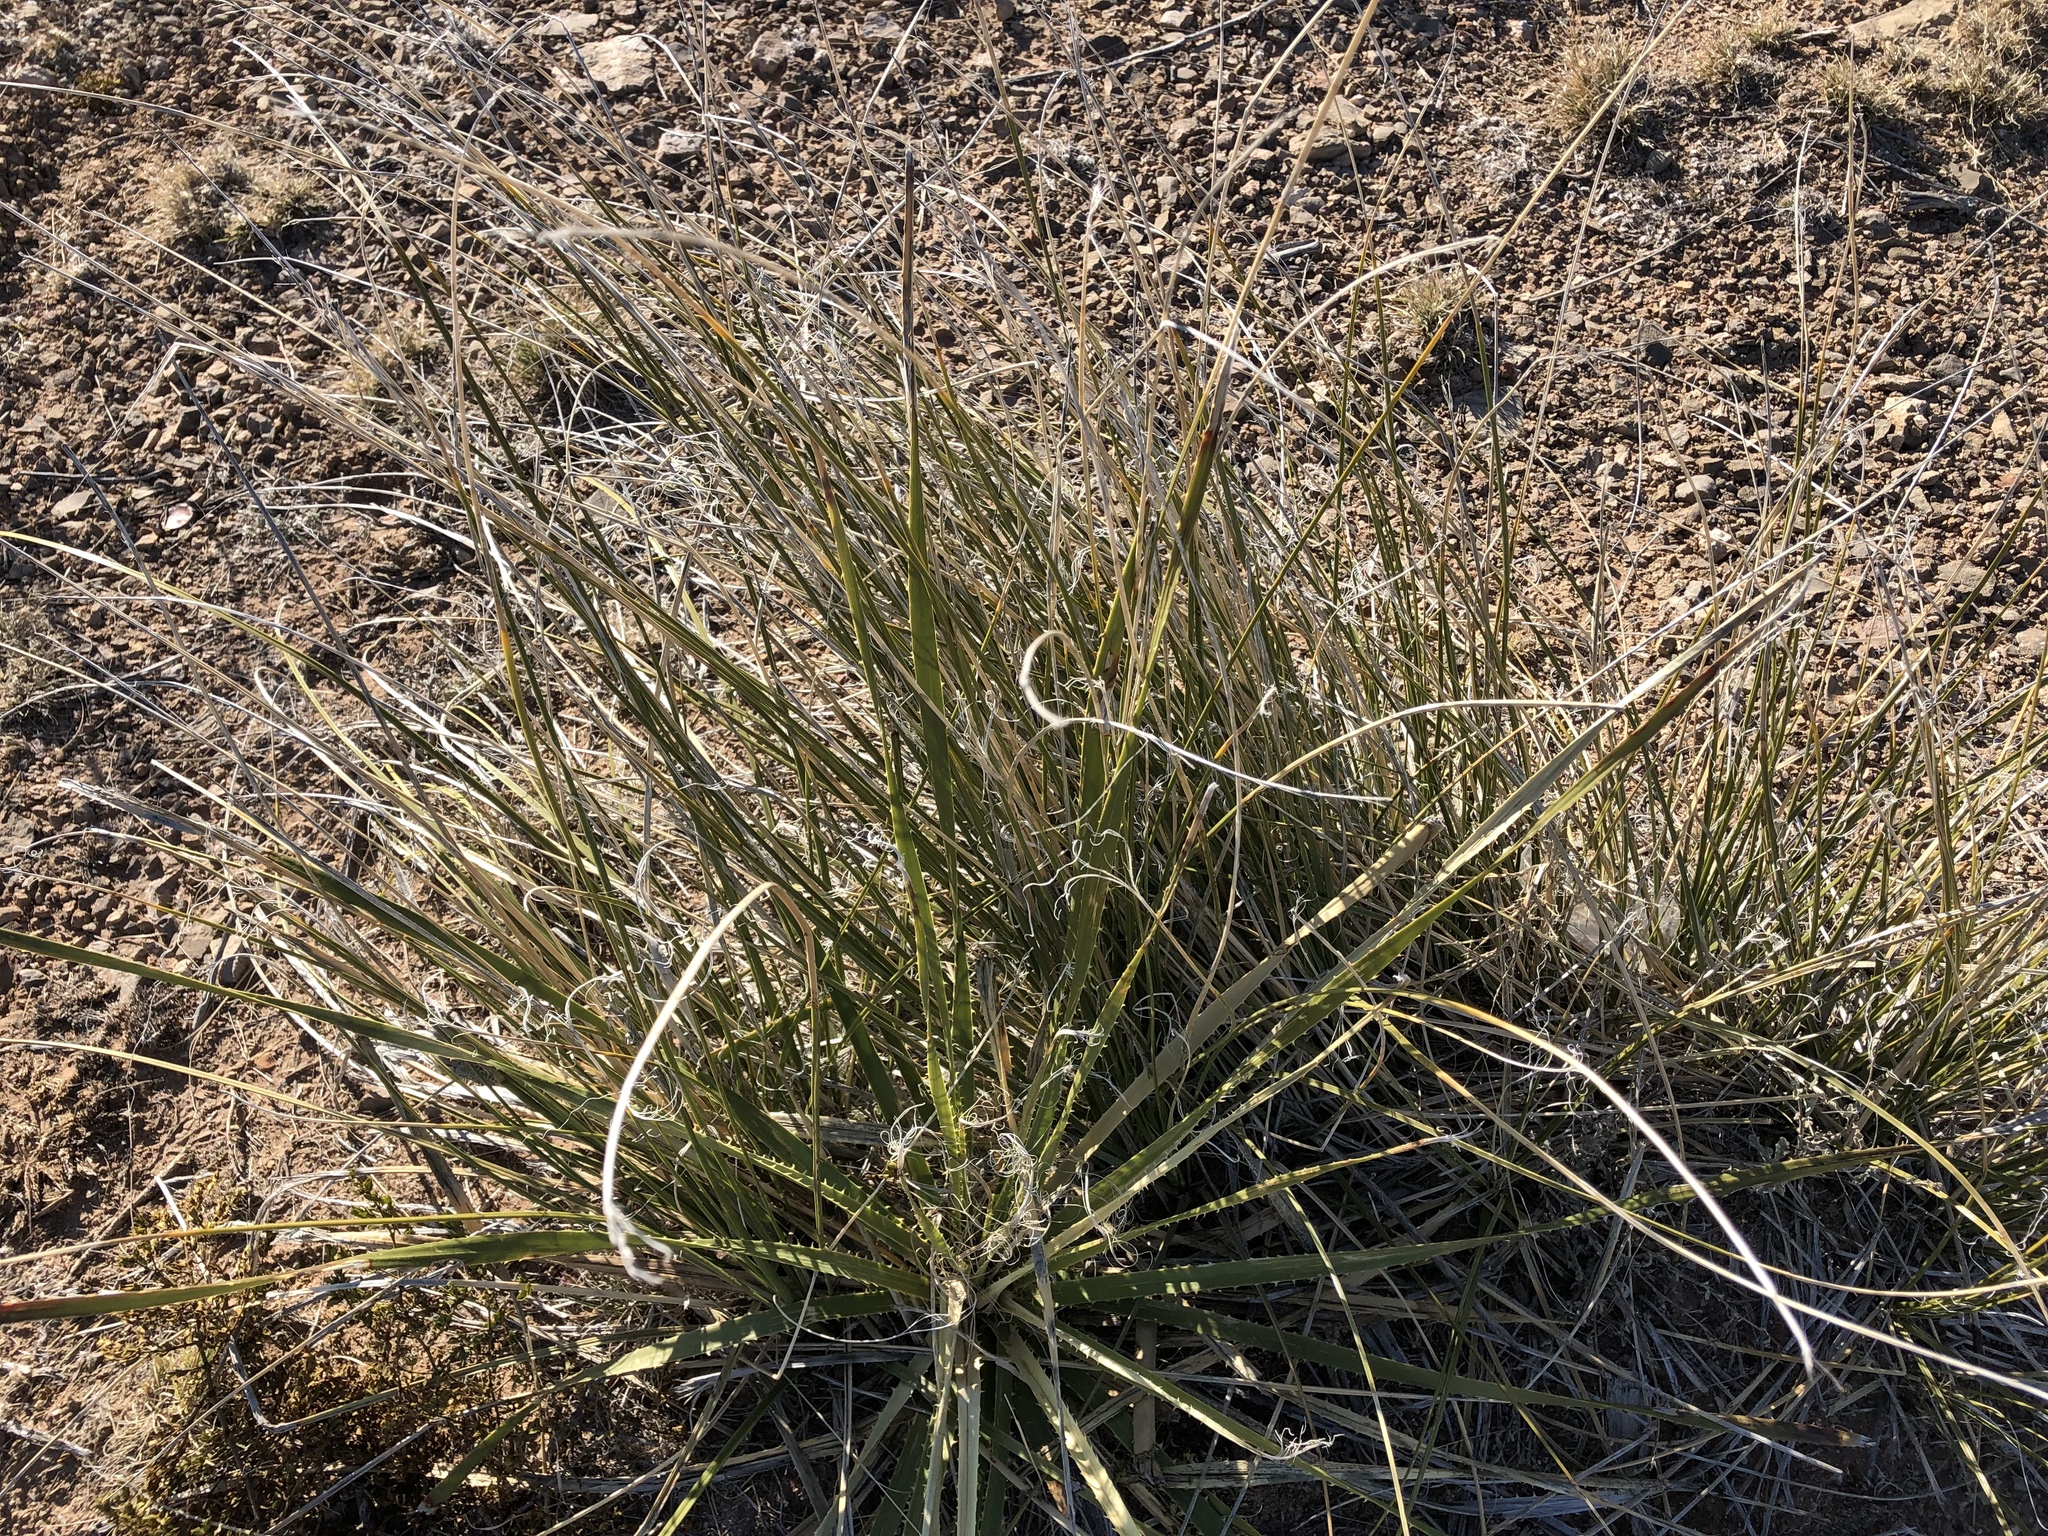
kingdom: Plantae
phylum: Tracheophyta
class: Liliopsida
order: Asparagales
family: Asparagaceae
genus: Nolina
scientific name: Nolina texana
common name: Texas sacahuiste
